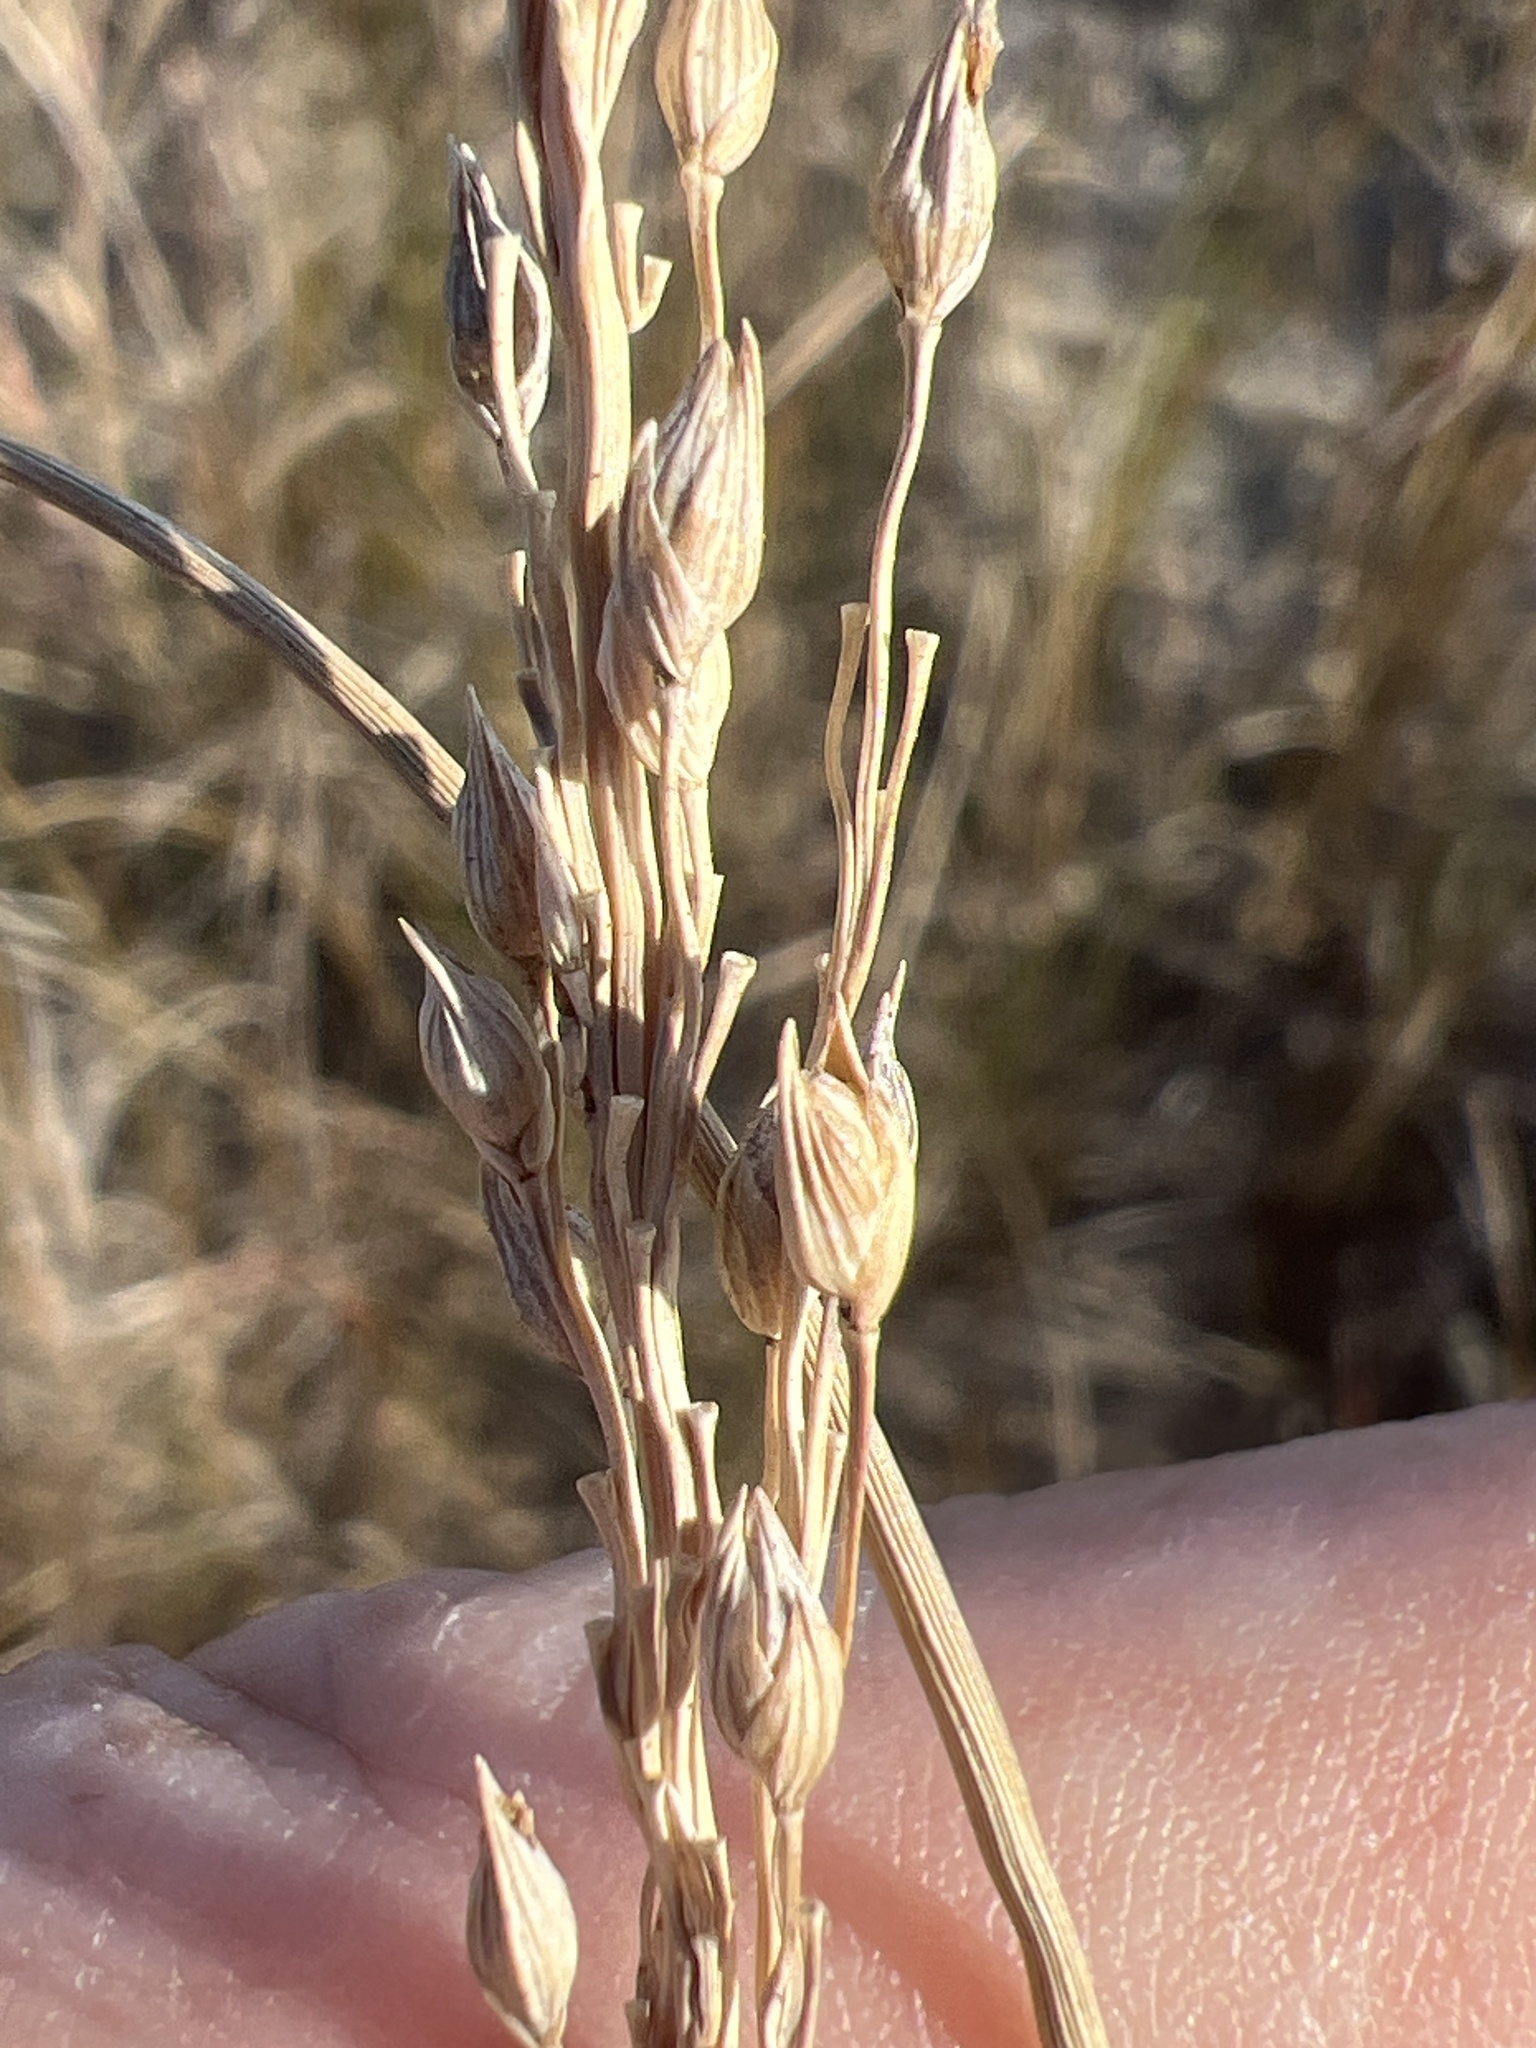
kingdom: Plantae
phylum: Tracheophyta
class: Liliopsida
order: Poales
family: Poaceae
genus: Panicum
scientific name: Panicum amarum
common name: Bitter panicum
